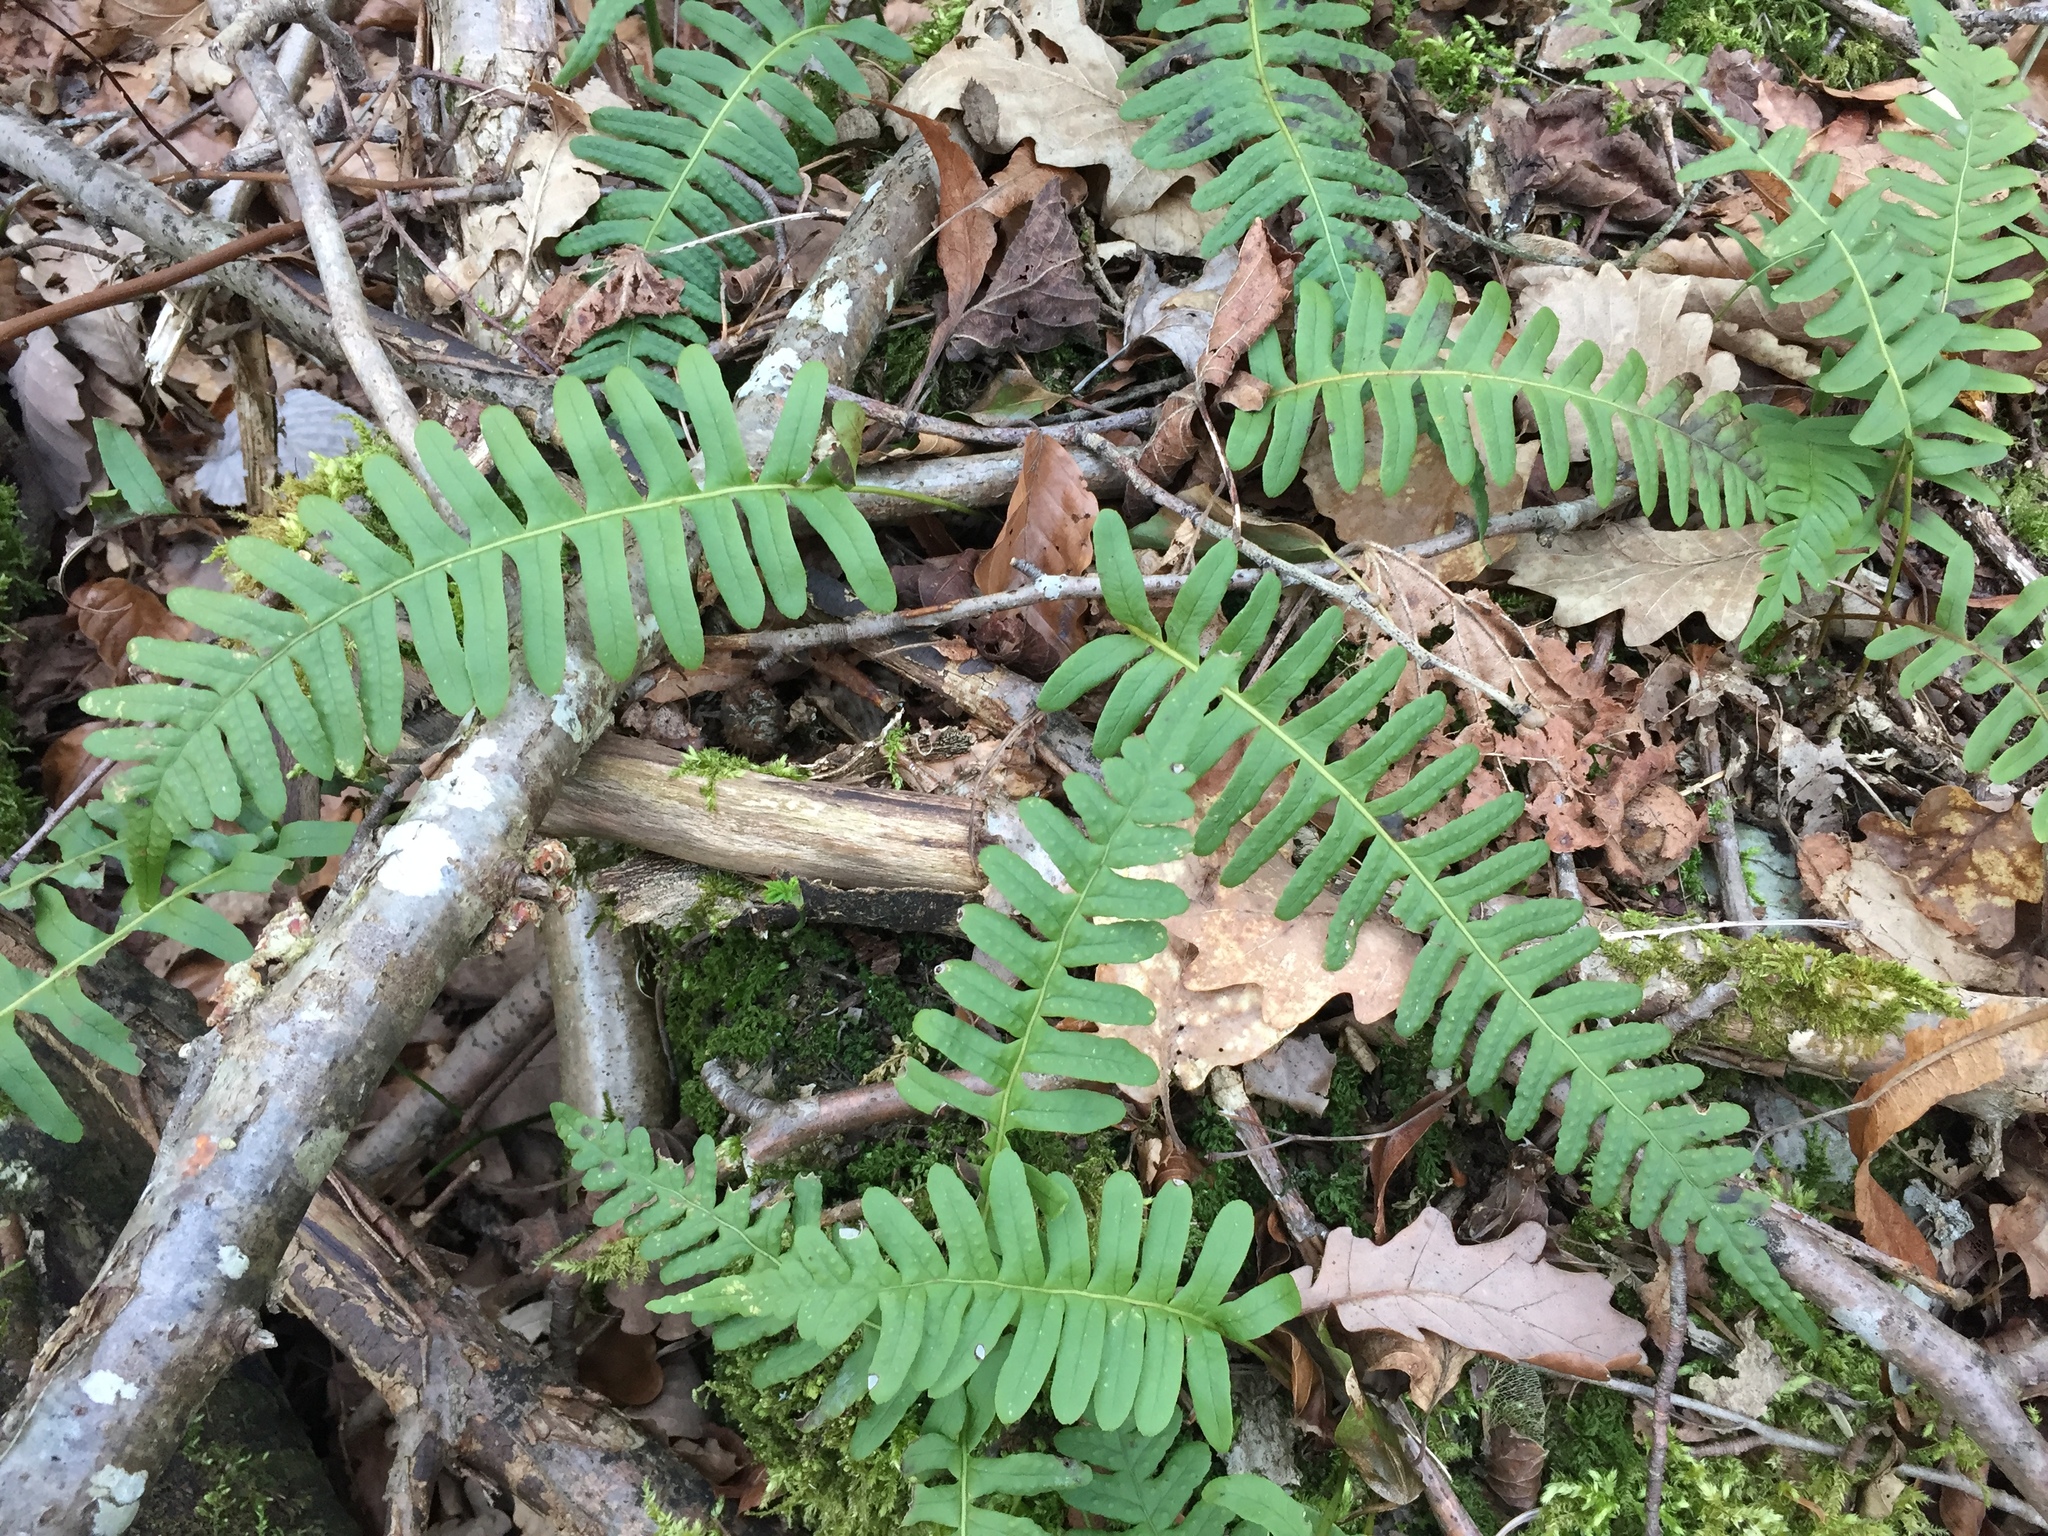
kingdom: Plantae
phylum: Tracheophyta
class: Polypodiopsida
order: Polypodiales
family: Polypodiaceae
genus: Polypodium
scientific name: Polypodium vulgare
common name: Common polypody
